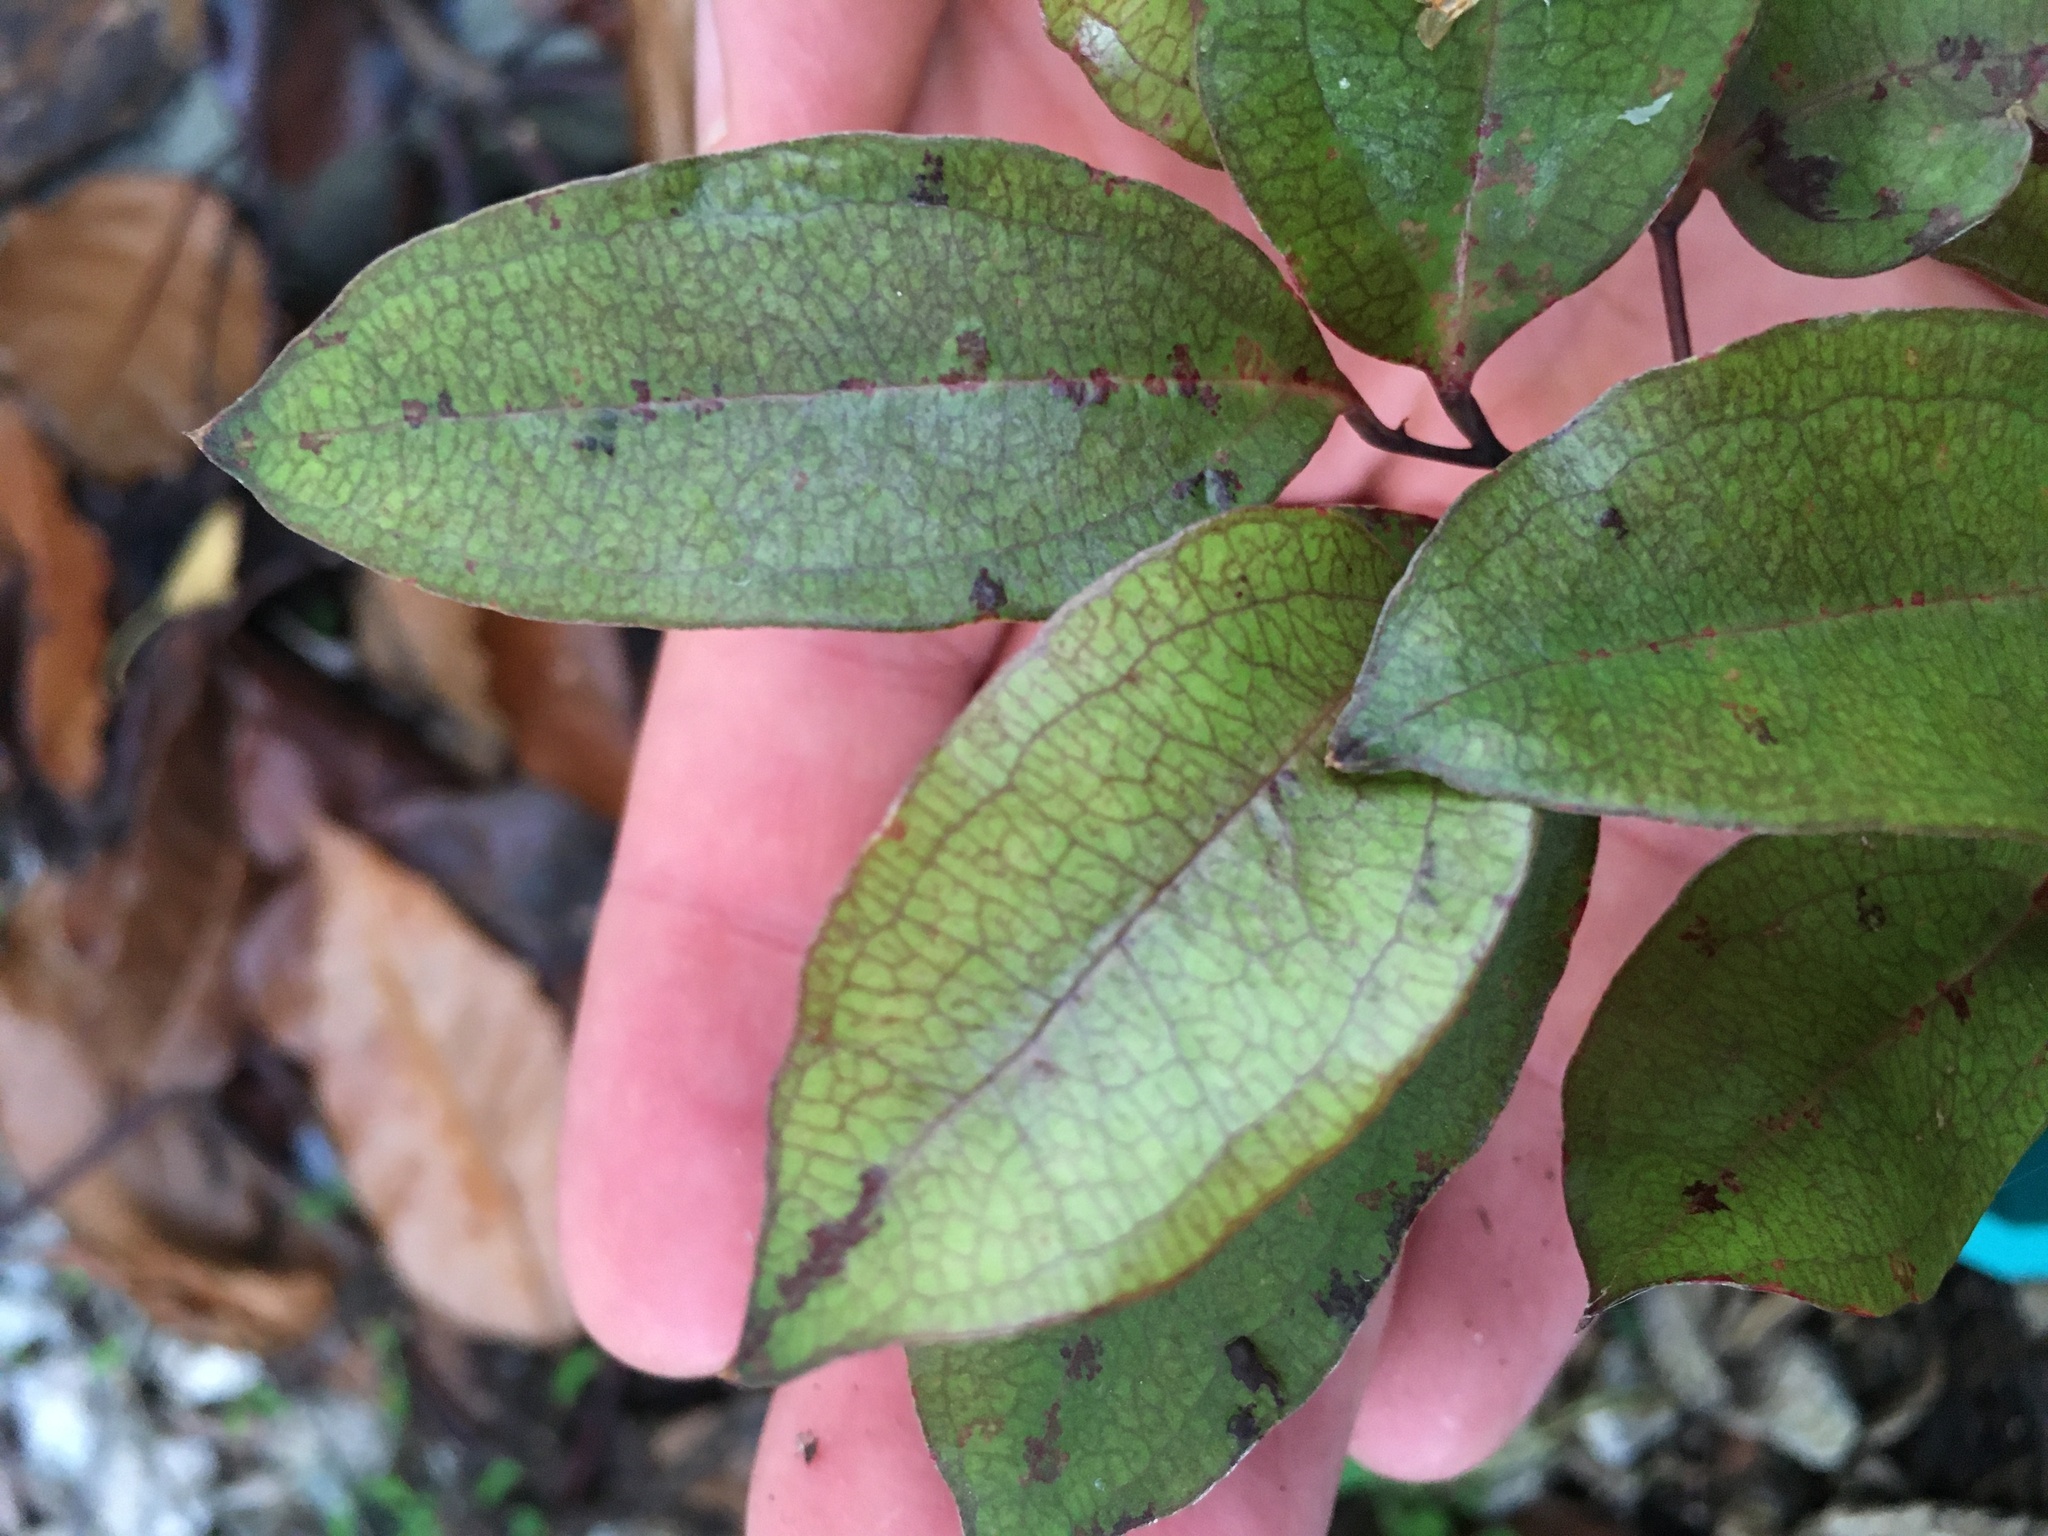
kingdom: Plantae
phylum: Tracheophyta
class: Liliopsida
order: Liliales
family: Ripogonaceae
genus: Ripogonum
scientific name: Ripogonum scandens
